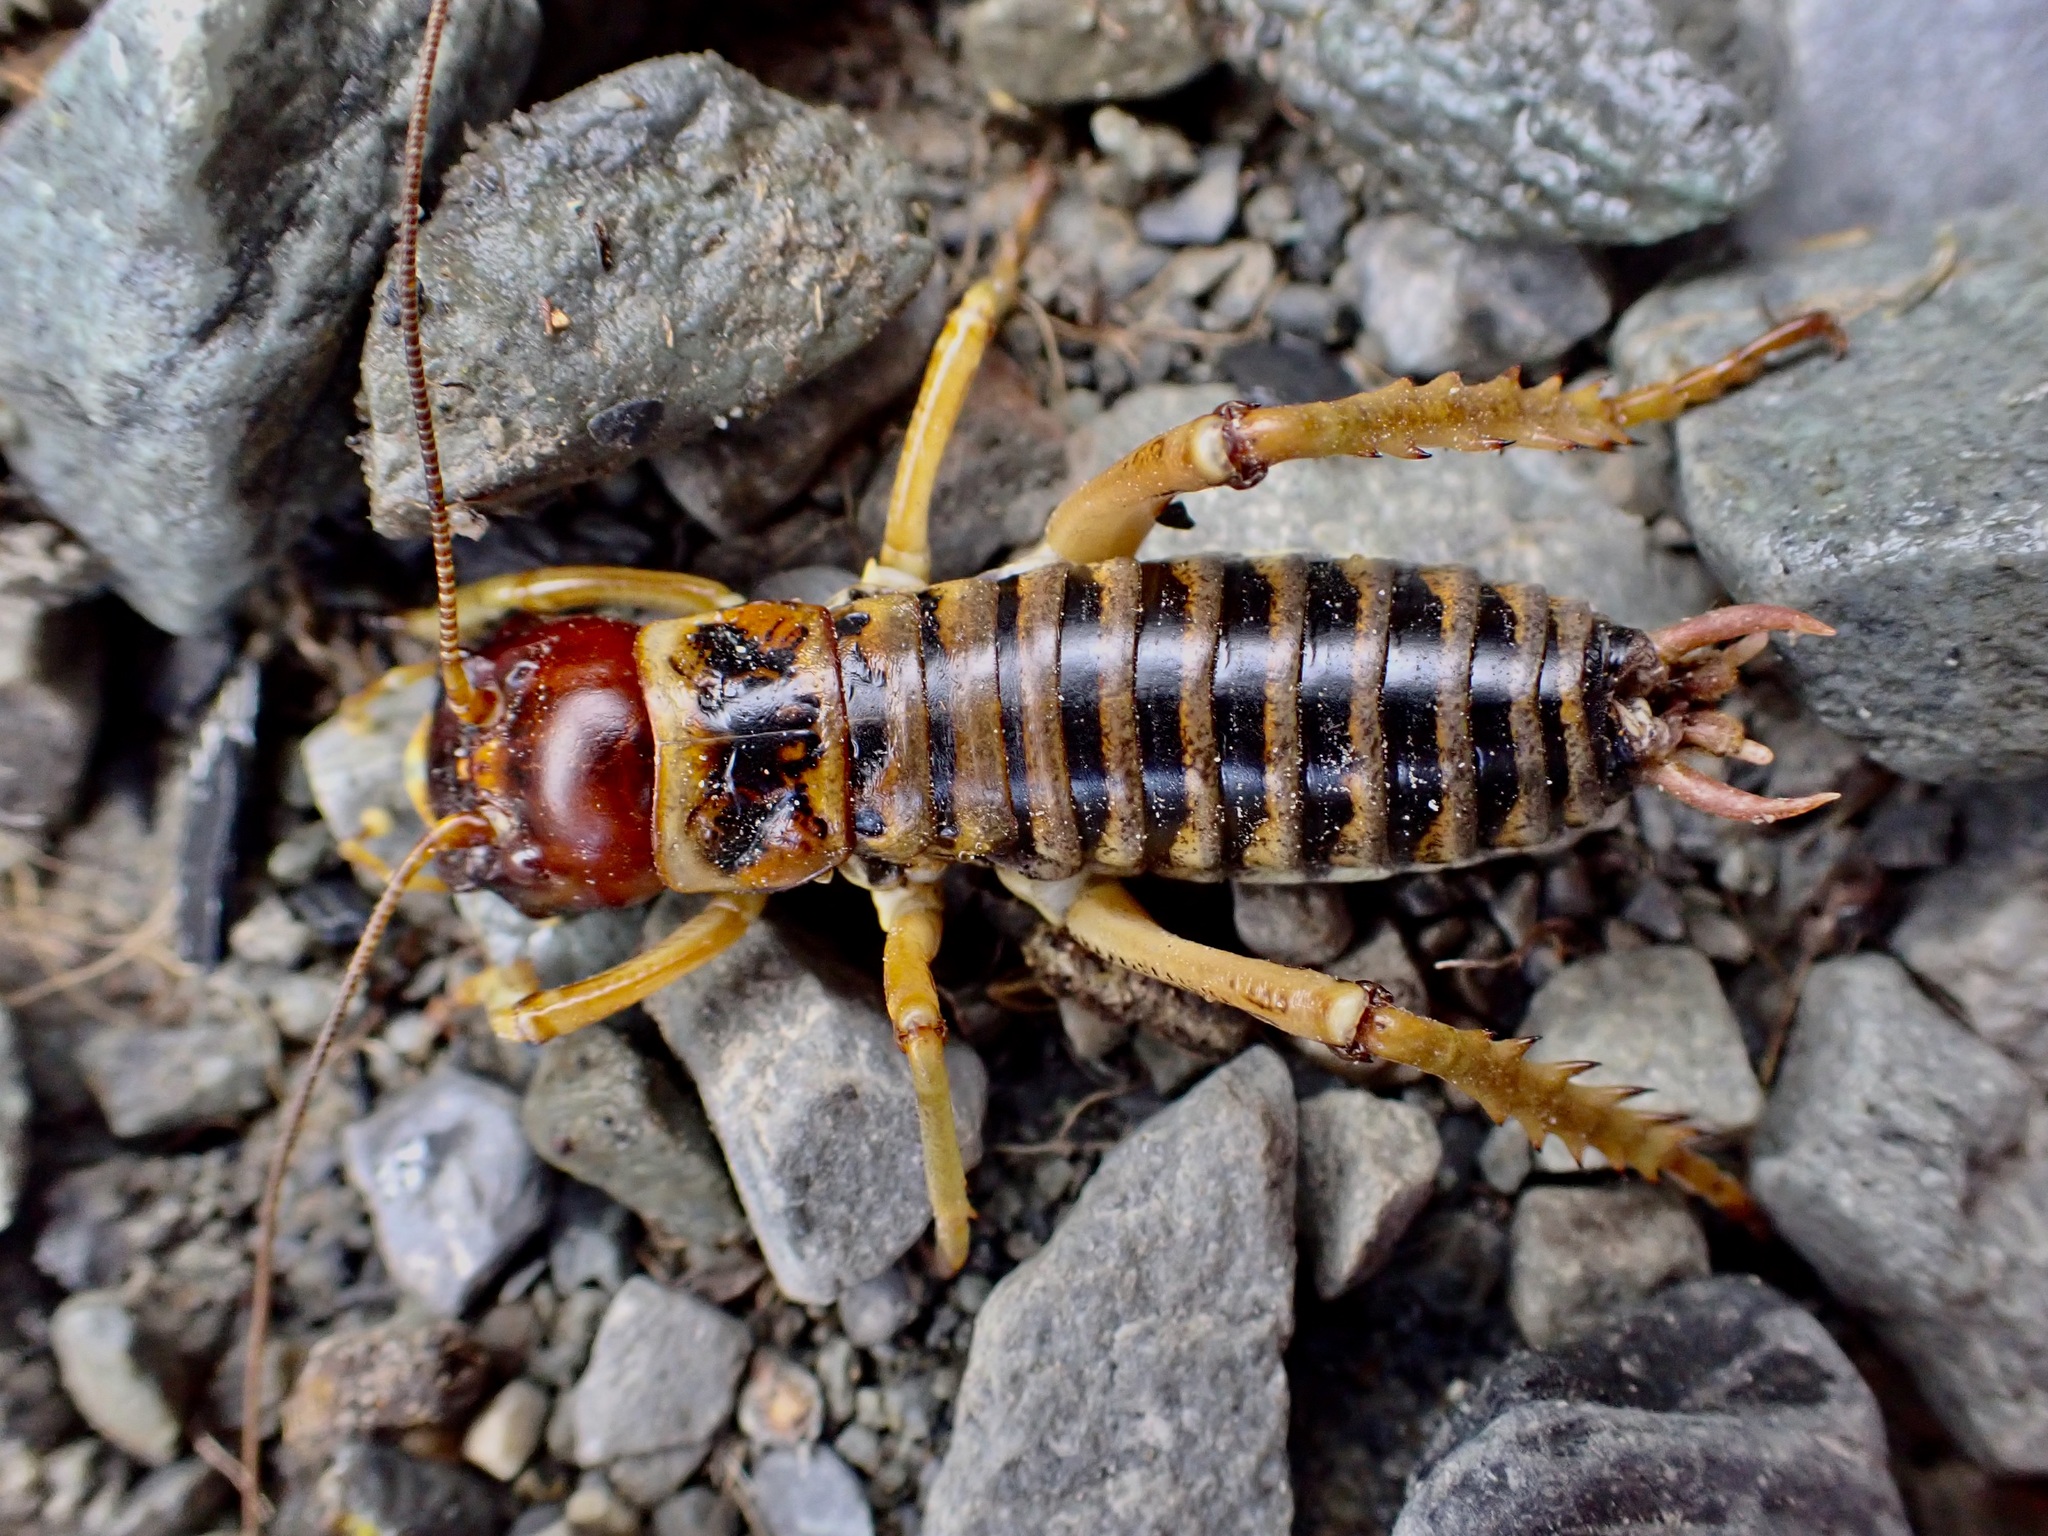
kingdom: Animalia
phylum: Arthropoda
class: Insecta
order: Orthoptera
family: Anostostomatidae
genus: Hemideina
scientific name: Hemideina maori
